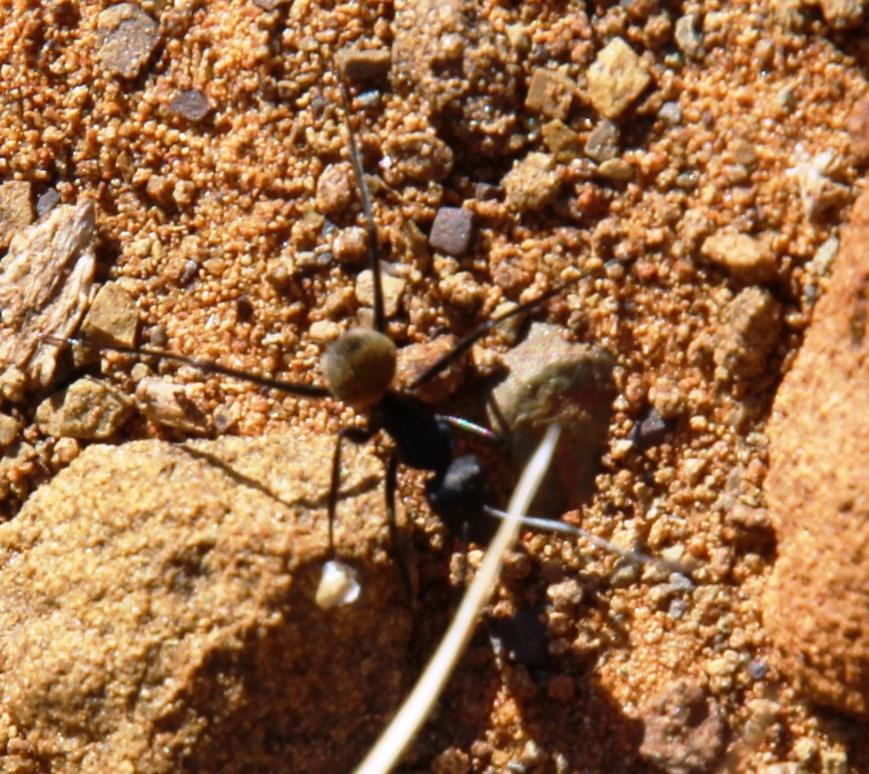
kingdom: Animalia
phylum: Arthropoda
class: Insecta
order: Hymenoptera
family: Formicidae
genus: Camponotus
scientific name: Camponotus fulvopilosus
